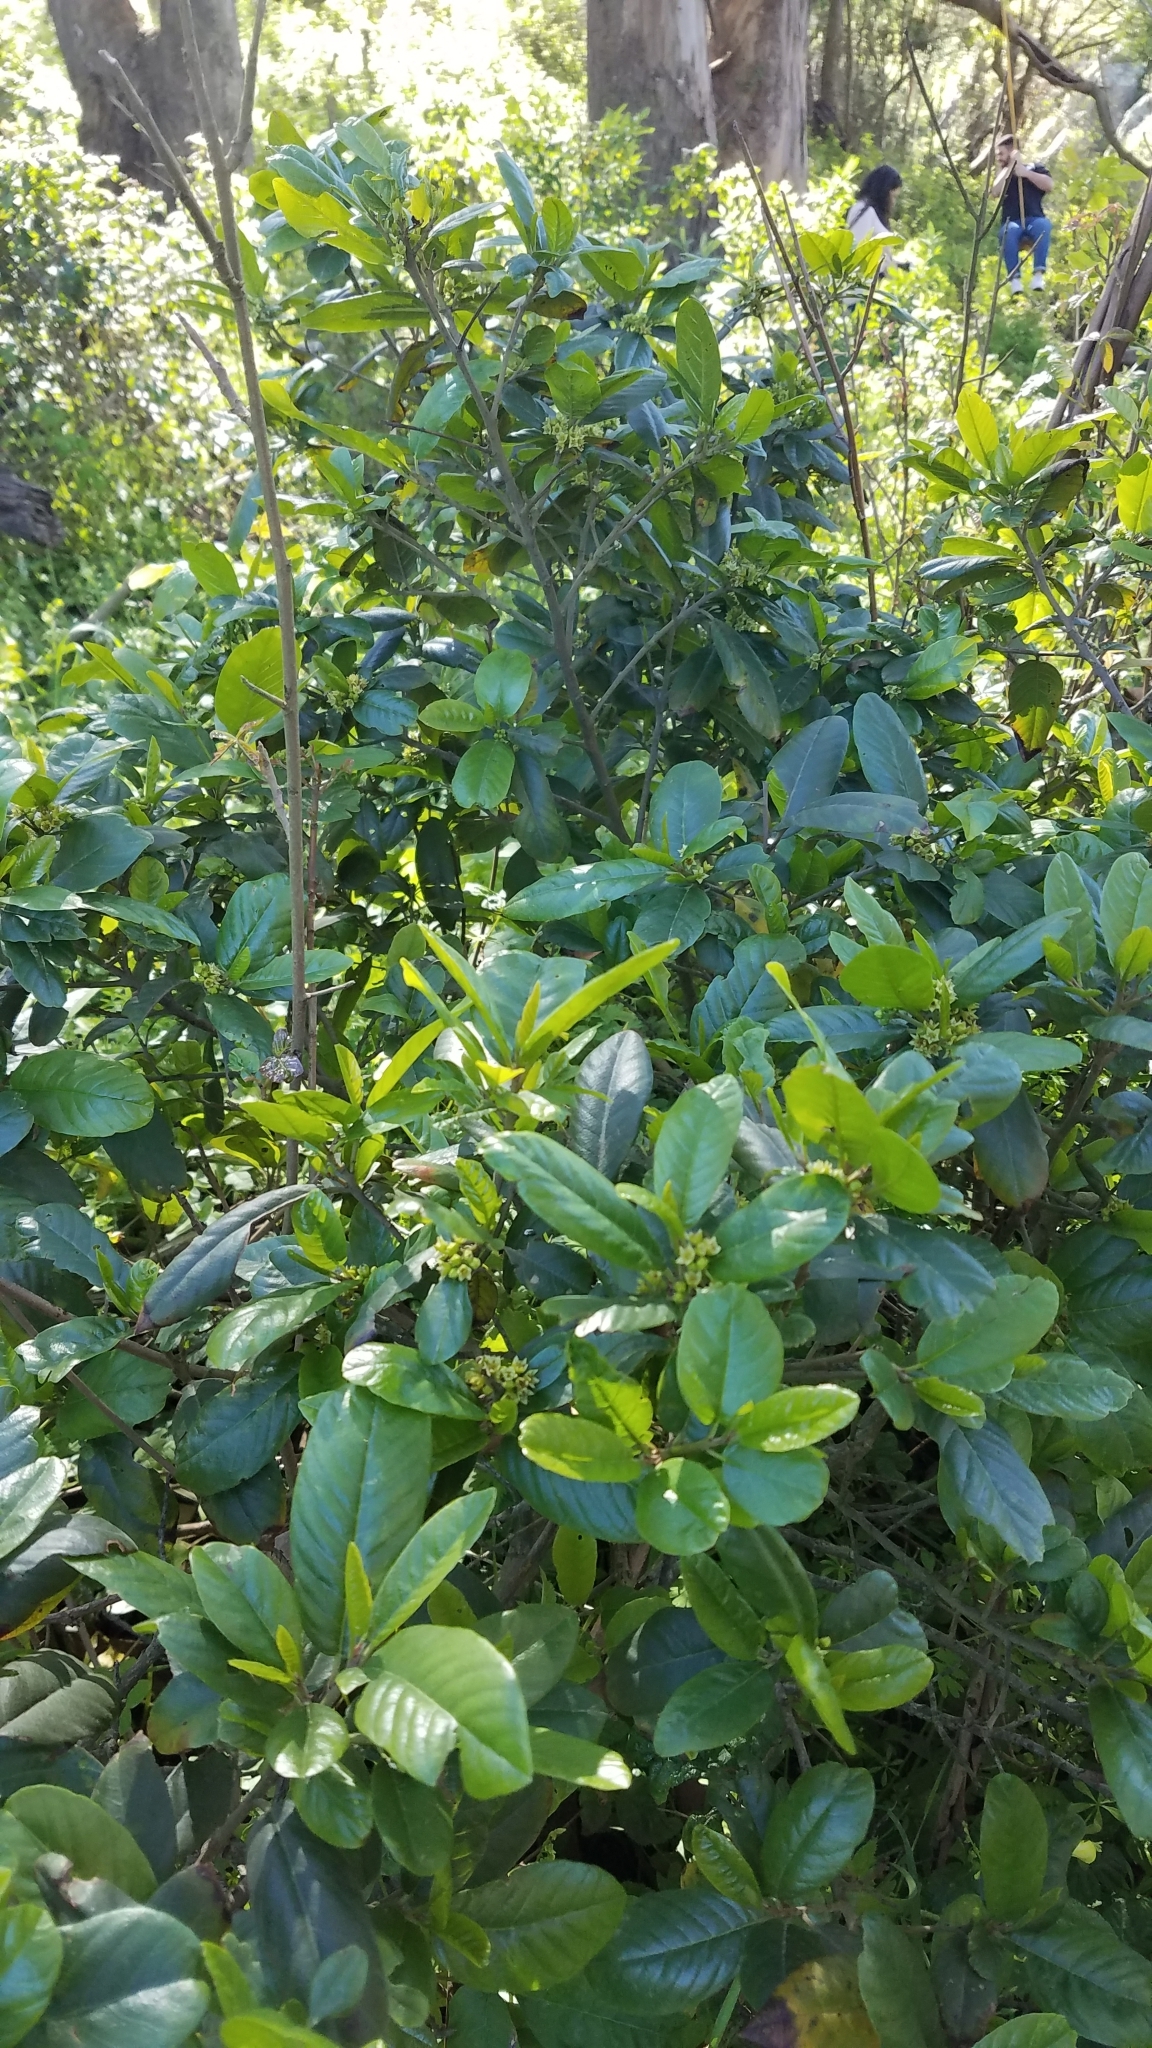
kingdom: Plantae
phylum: Tracheophyta
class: Magnoliopsida
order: Rosales
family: Rhamnaceae
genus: Frangula
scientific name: Frangula californica
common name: California buckthorn
